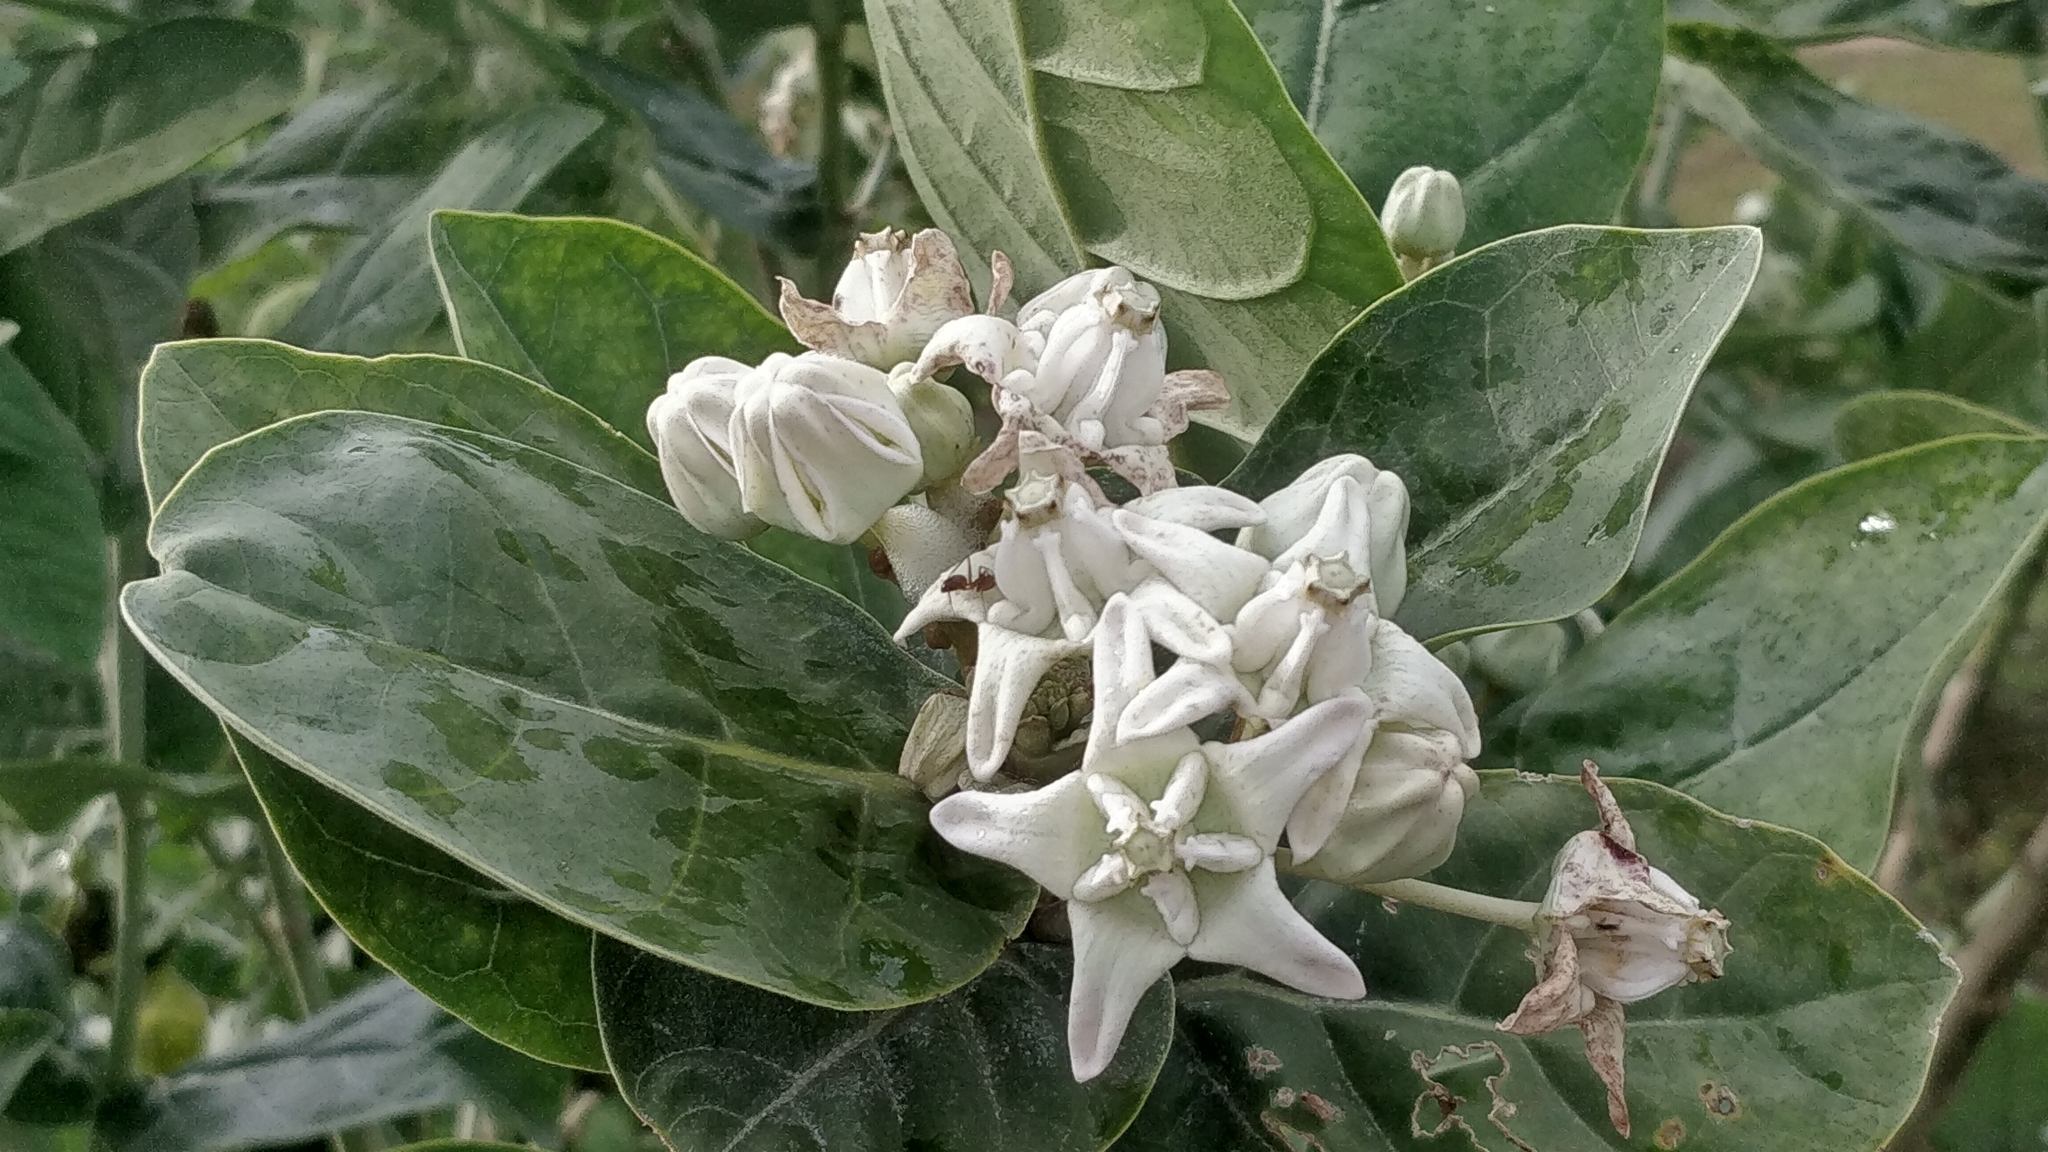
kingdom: Plantae
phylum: Tracheophyta
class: Magnoliopsida
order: Gentianales
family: Apocynaceae
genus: Calotropis
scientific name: Calotropis gigantea
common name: Crown flower
